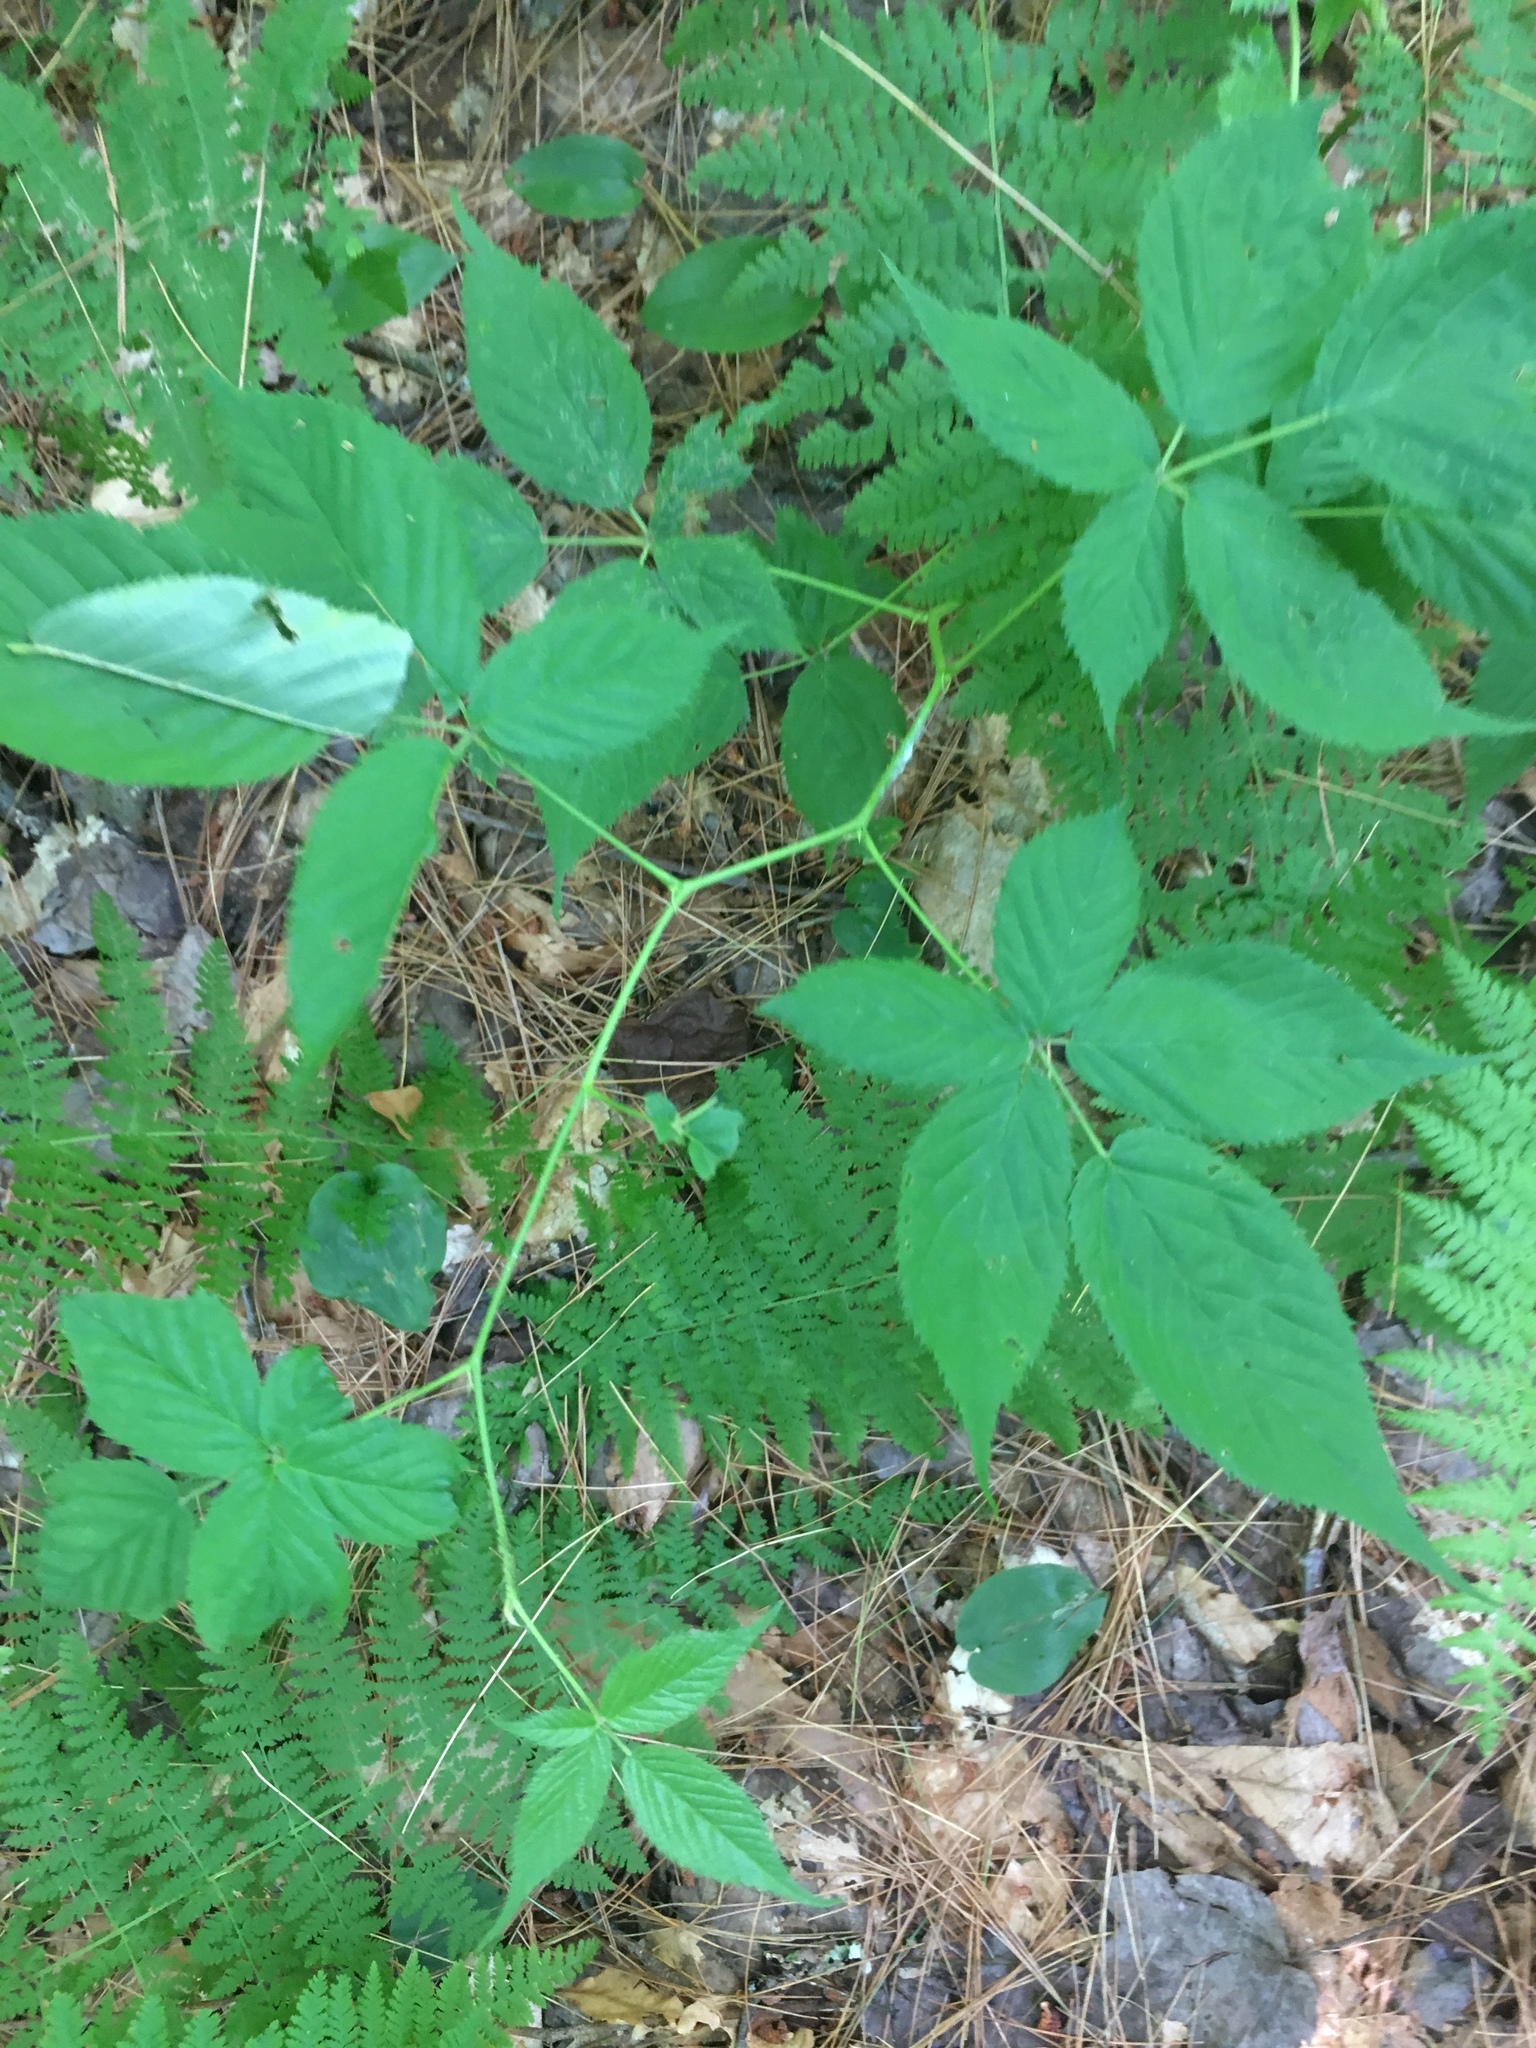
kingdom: Plantae
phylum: Tracheophyta
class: Magnoliopsida
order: Rosales
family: Rosaceae
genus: Rubus
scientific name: Rubus canadensis
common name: Smooth blackberry
